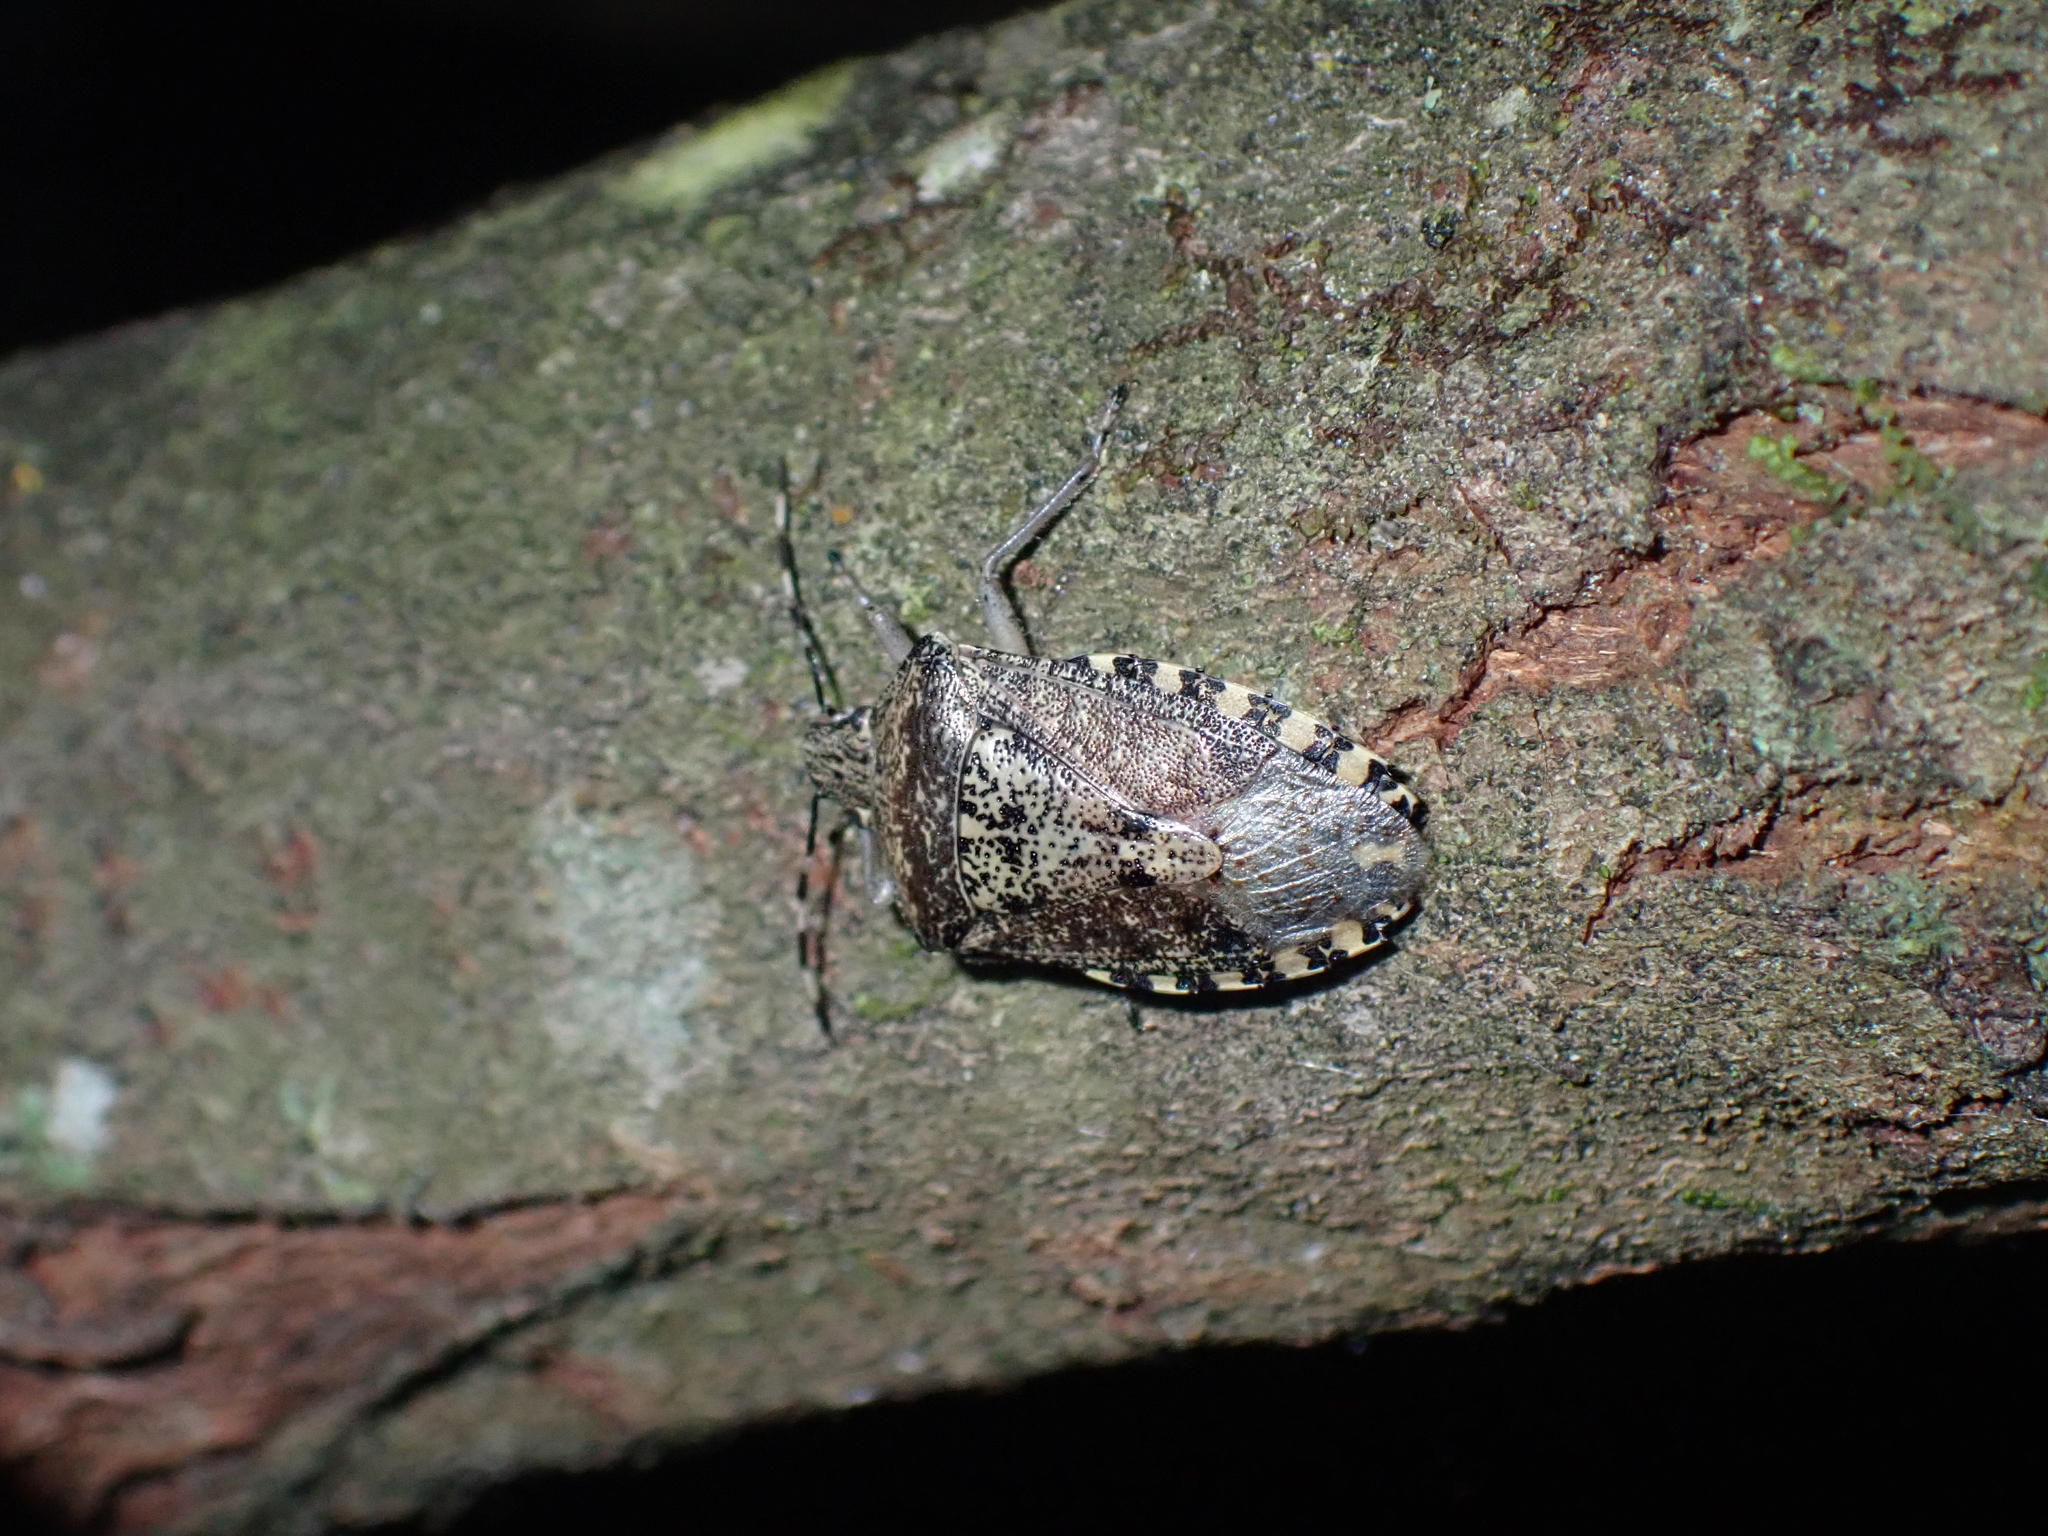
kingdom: Animalia
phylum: Arthropoda
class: Insecta
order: Hemiptera
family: Pentatomidae
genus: Rhaphigaster
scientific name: Rhaphigaster nebulosa
